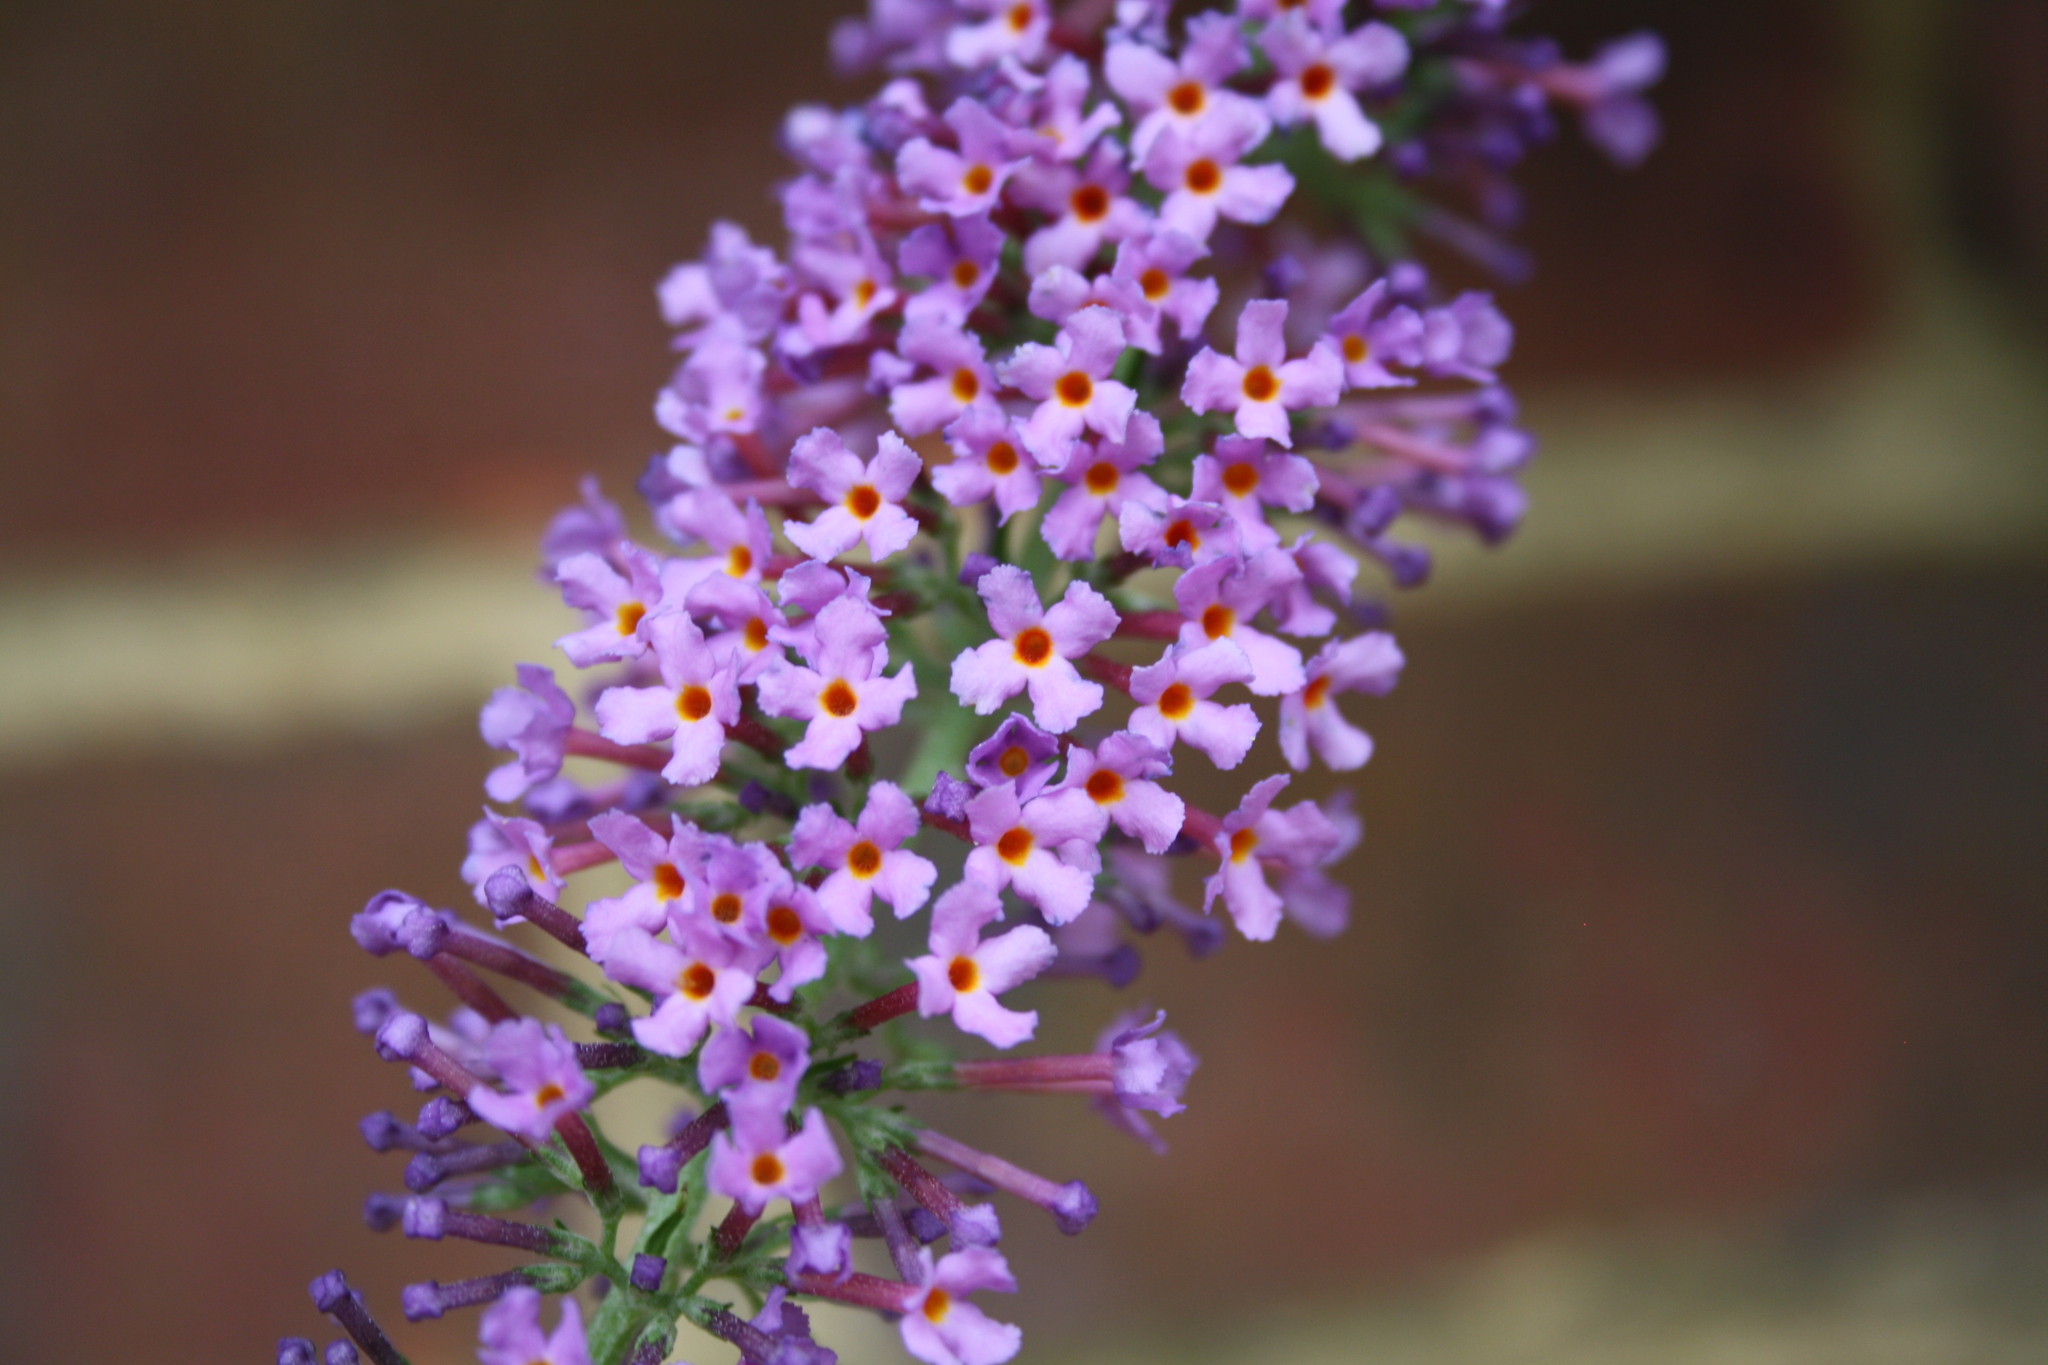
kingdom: Plantae
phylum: Tracheophyta
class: Magnoliopsida
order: Lamiales
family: Scrophulariaceae
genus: Buddleja
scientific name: Buddleja davidii
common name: Butterfly-bush
